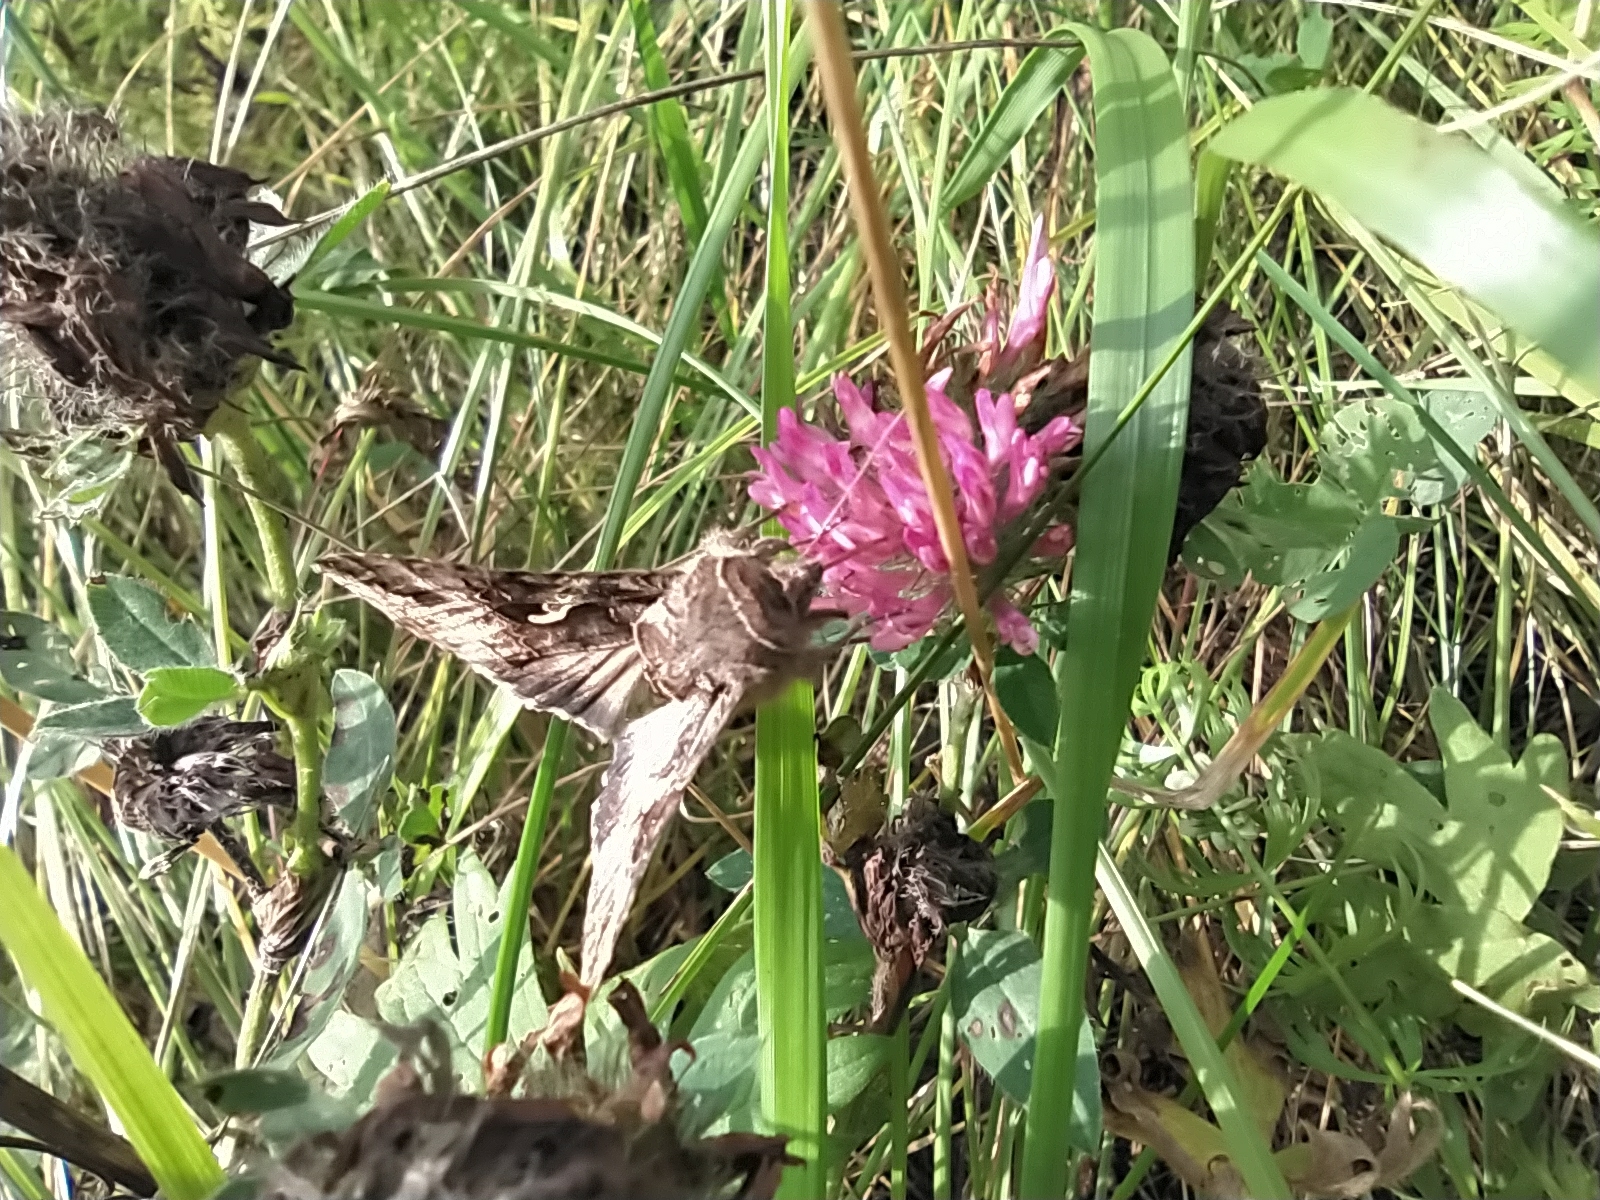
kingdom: Animalia
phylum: Arthropoda
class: Insecta
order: Lepidoptera
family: Noctuidae
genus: Autographa
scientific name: Autographa gamma
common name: Silver y
